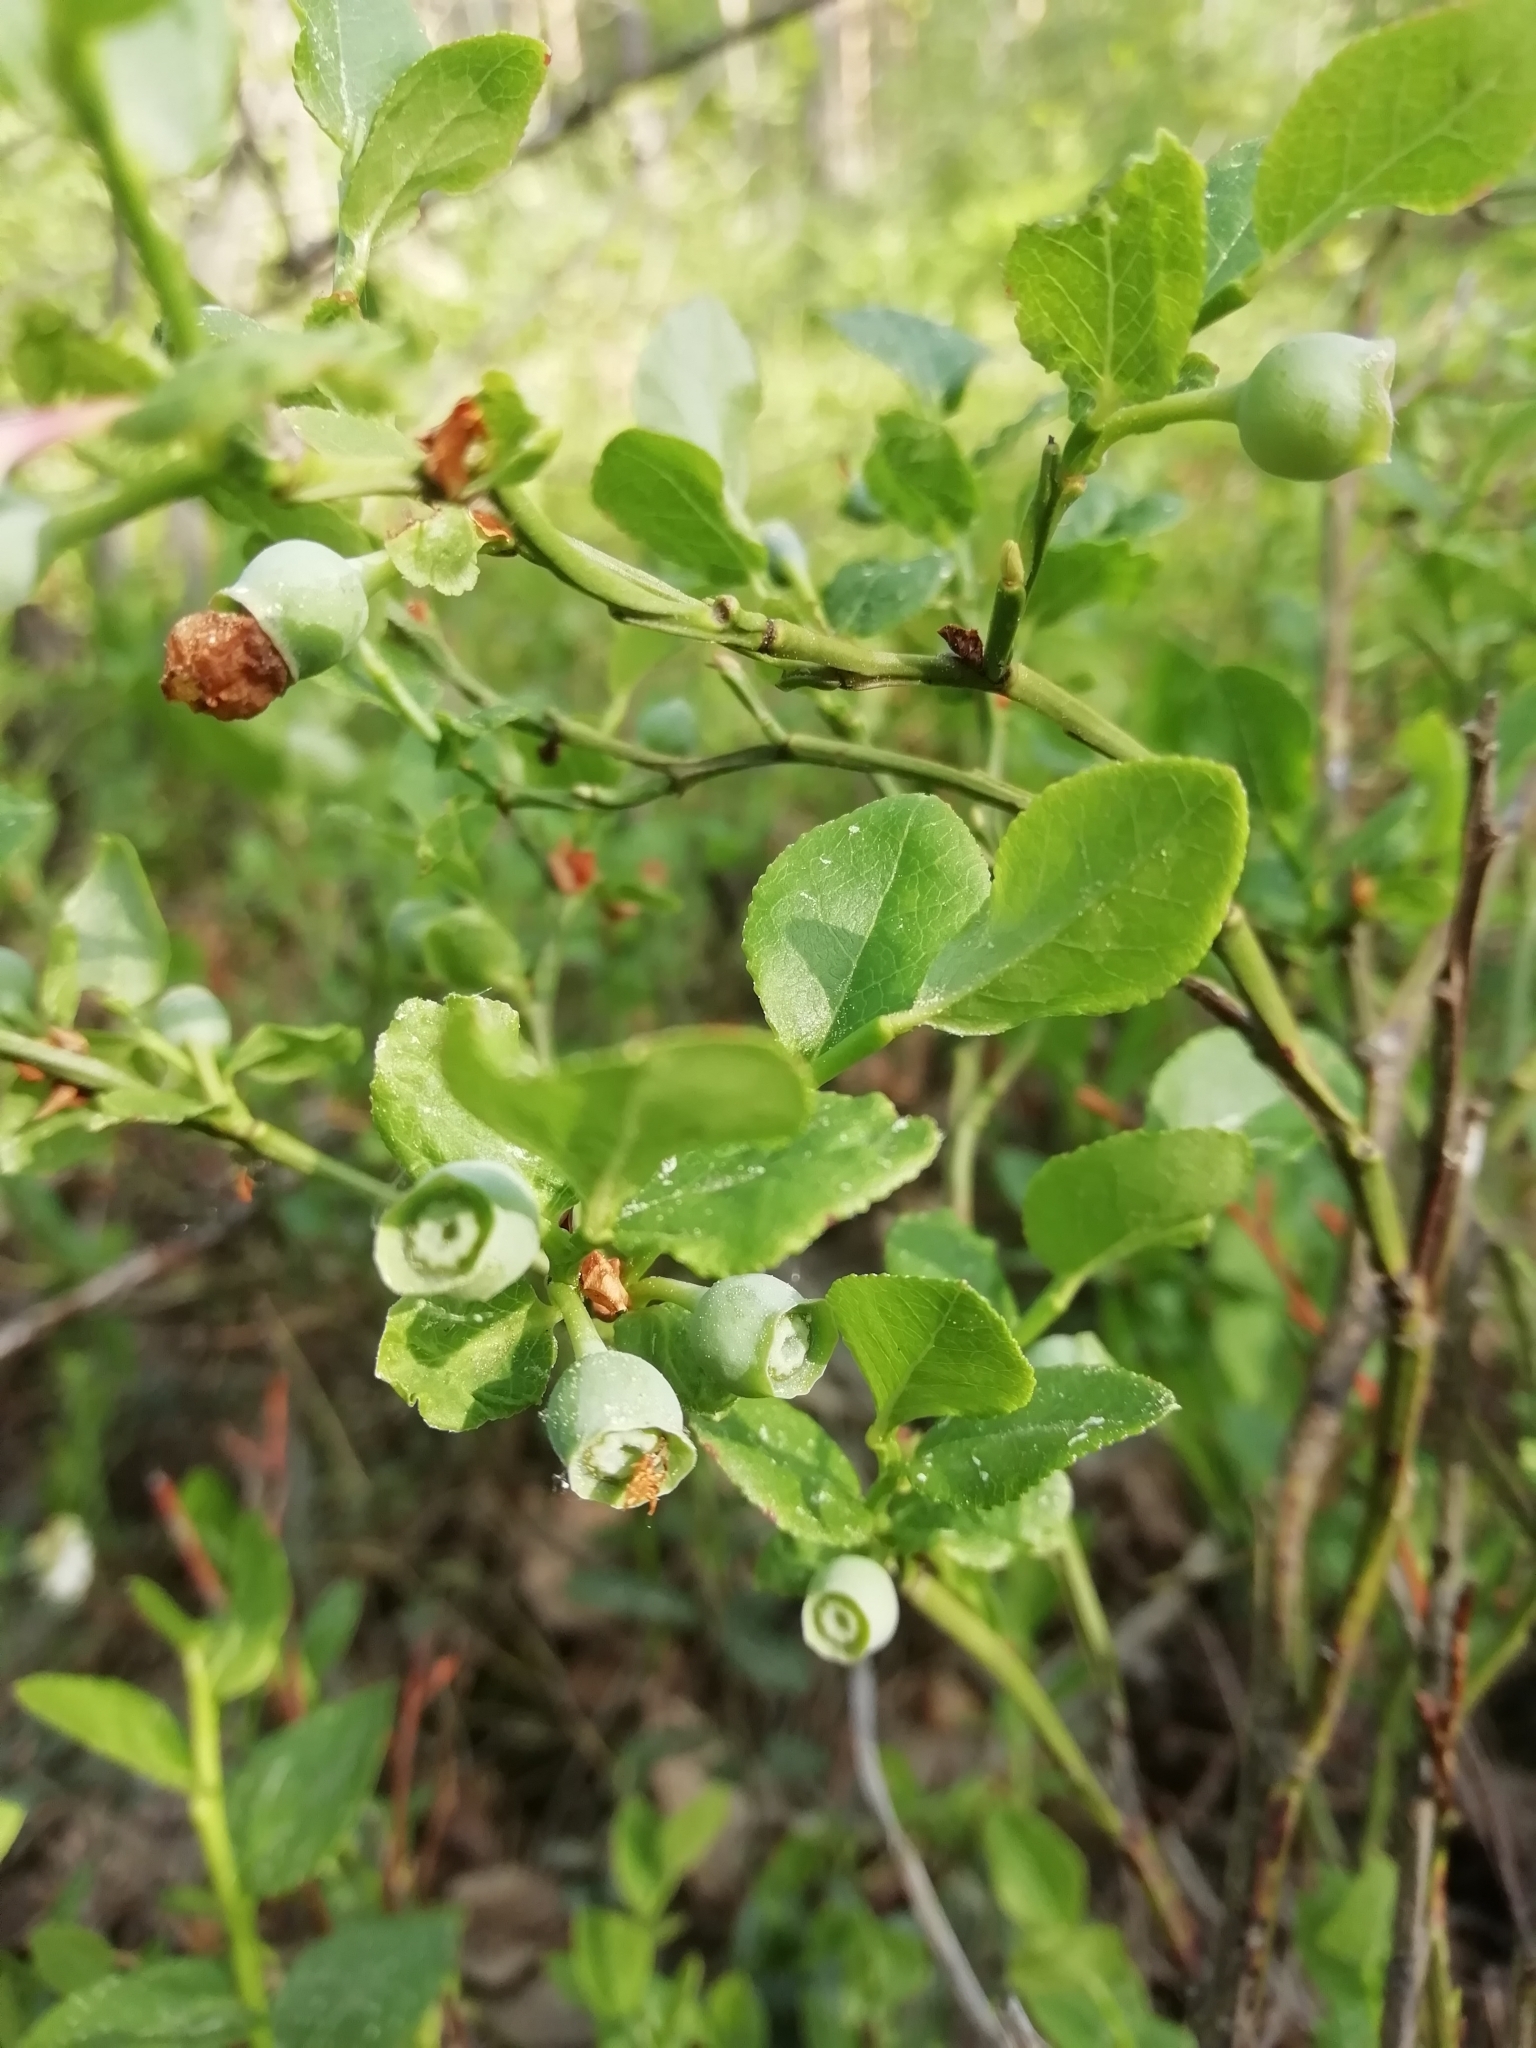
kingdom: Plantae
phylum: Tracheophyta
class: Magnoliopsida
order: Ericales
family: Ericaceae
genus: Vaccinium
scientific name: Vaccinium myrtillus
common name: Bilberry
